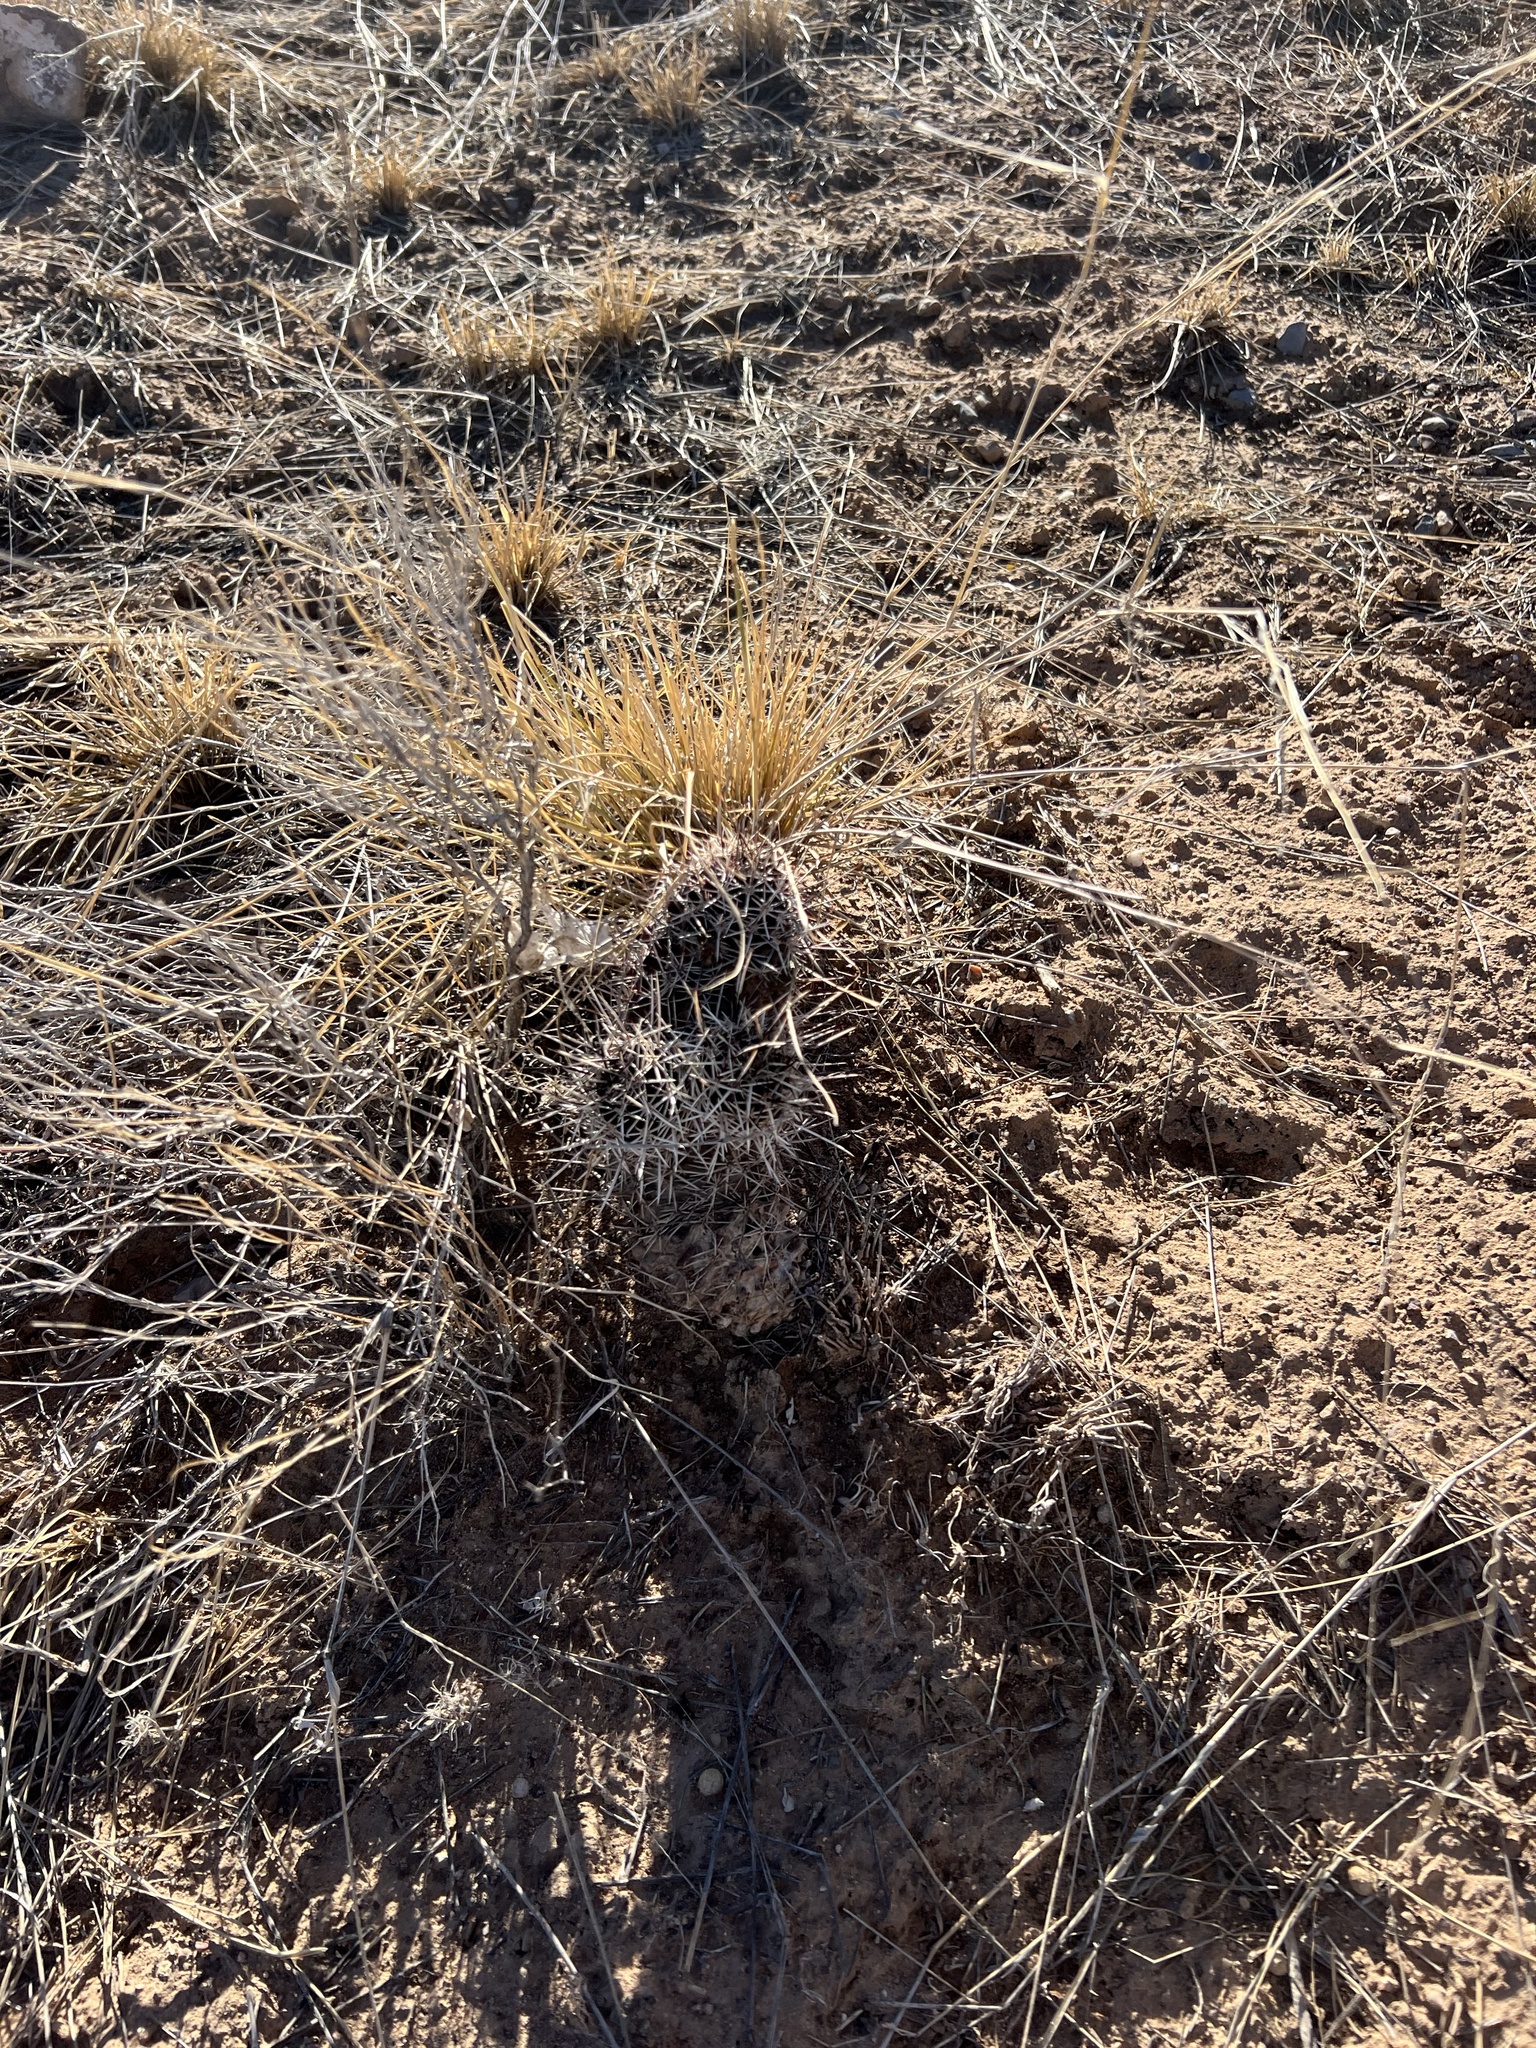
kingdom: Plantae
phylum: Tracheophyta
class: Magnoliopsida
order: Caryophyllales
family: Cactaceae
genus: Echinocereus
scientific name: Echinocereus fendleri
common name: Fendler's hedgehog cactus
